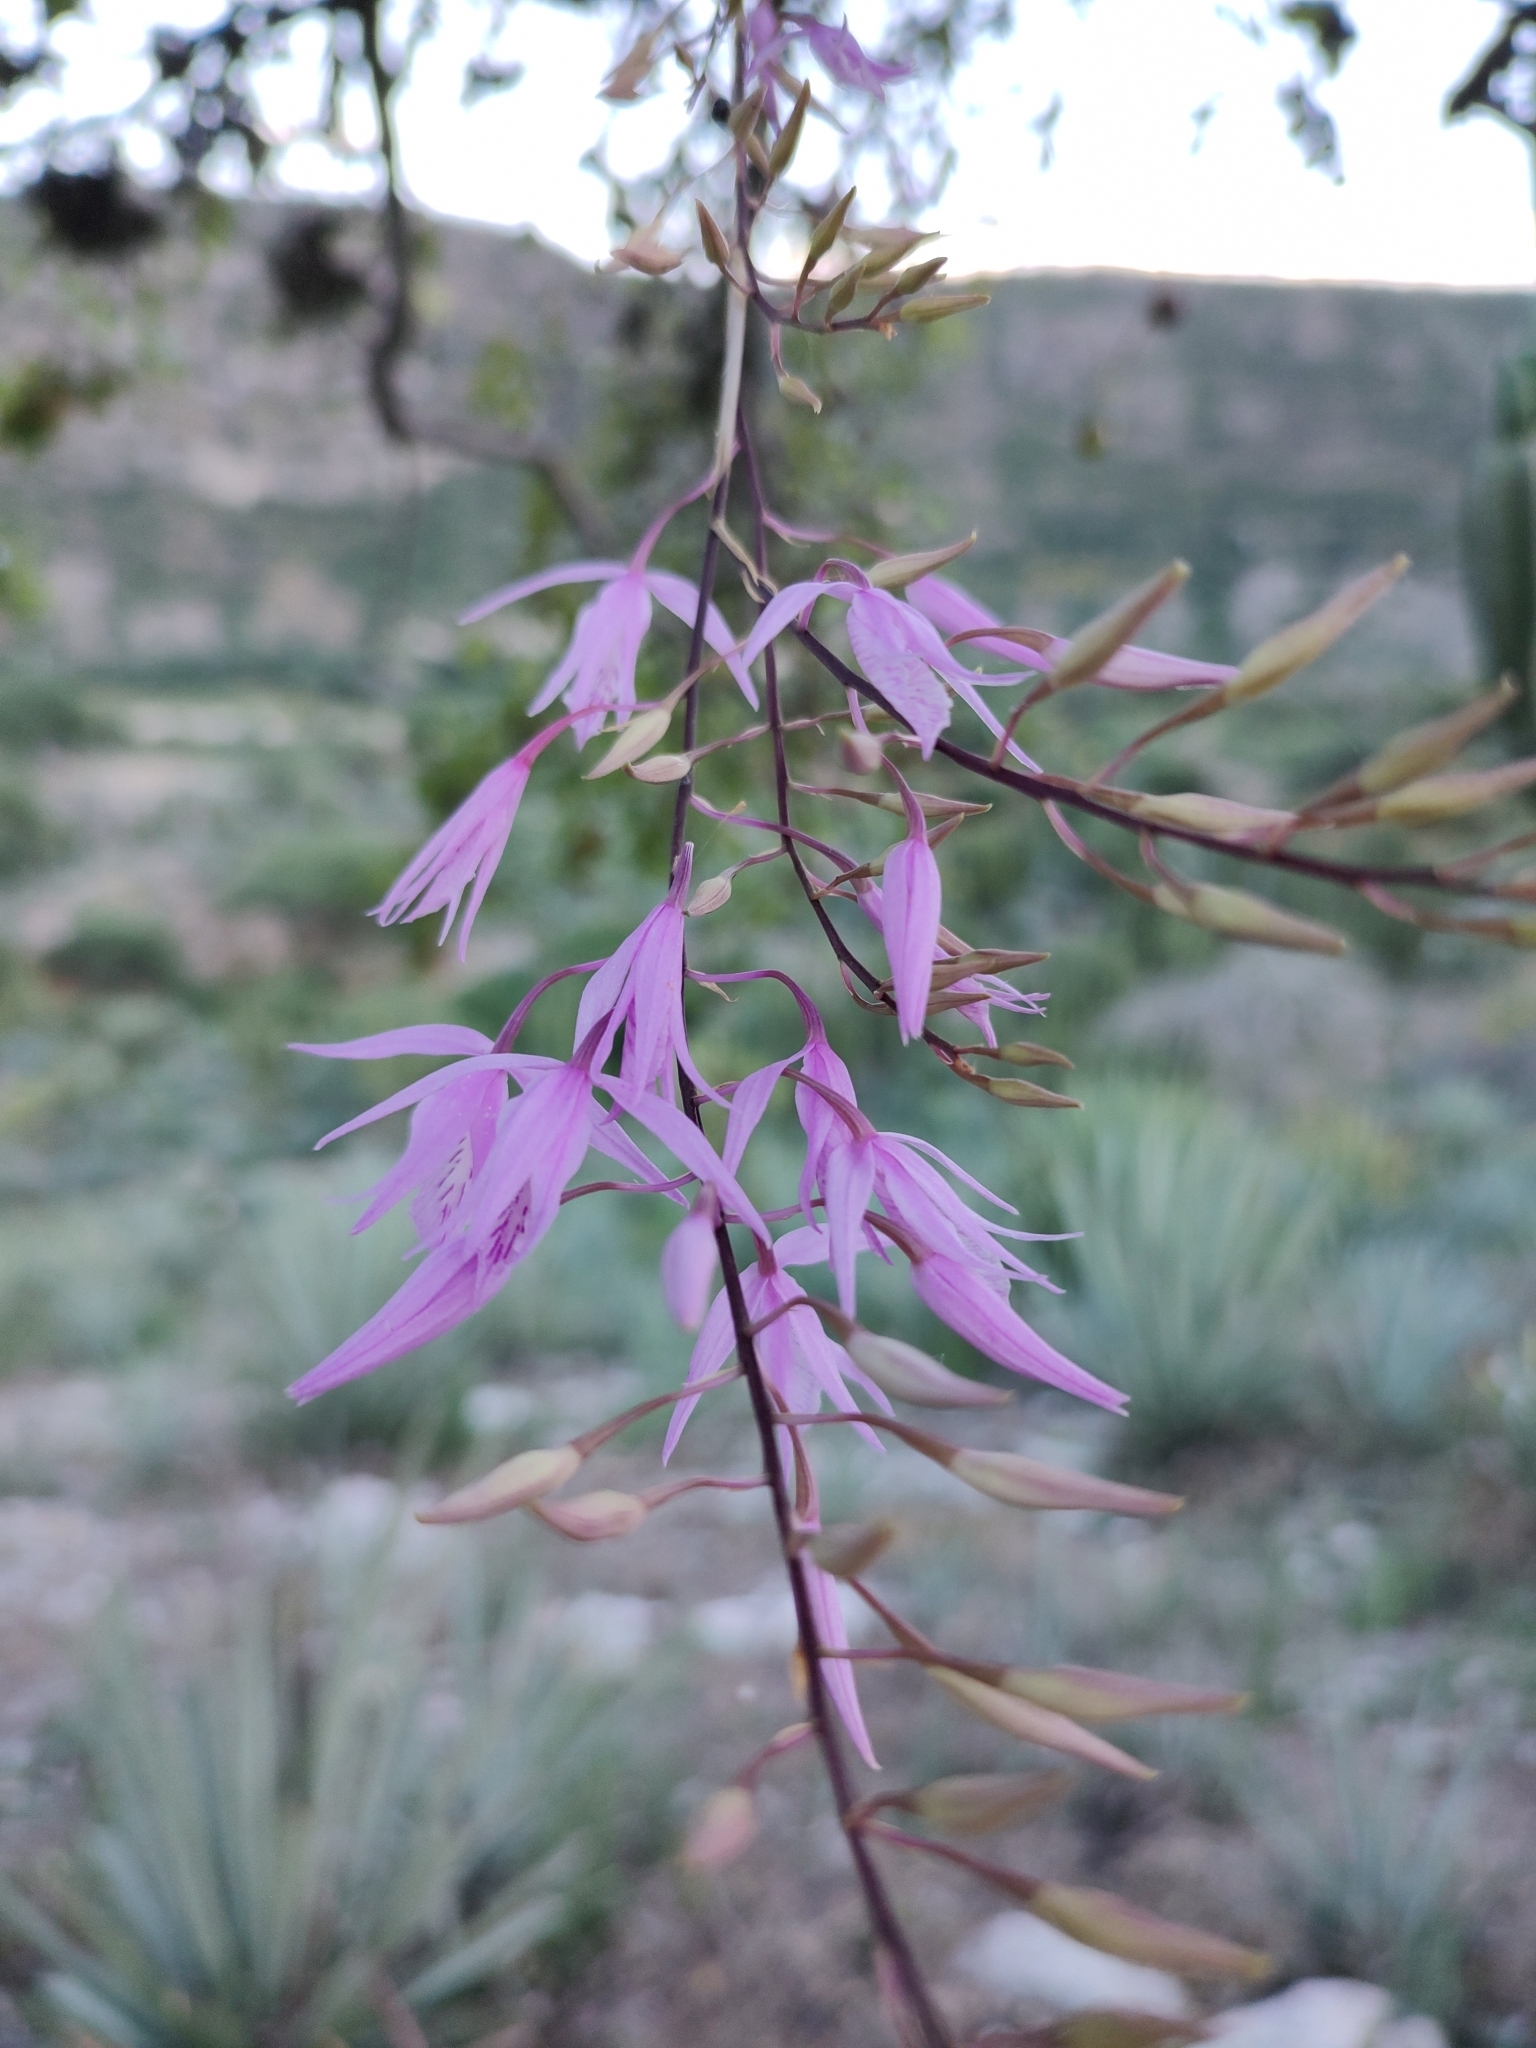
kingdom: Plantae
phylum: Tracheophyta
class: Liliopsida
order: Asparagales
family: Orchidaceae
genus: Barkeria
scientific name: Barkeria palmeri
